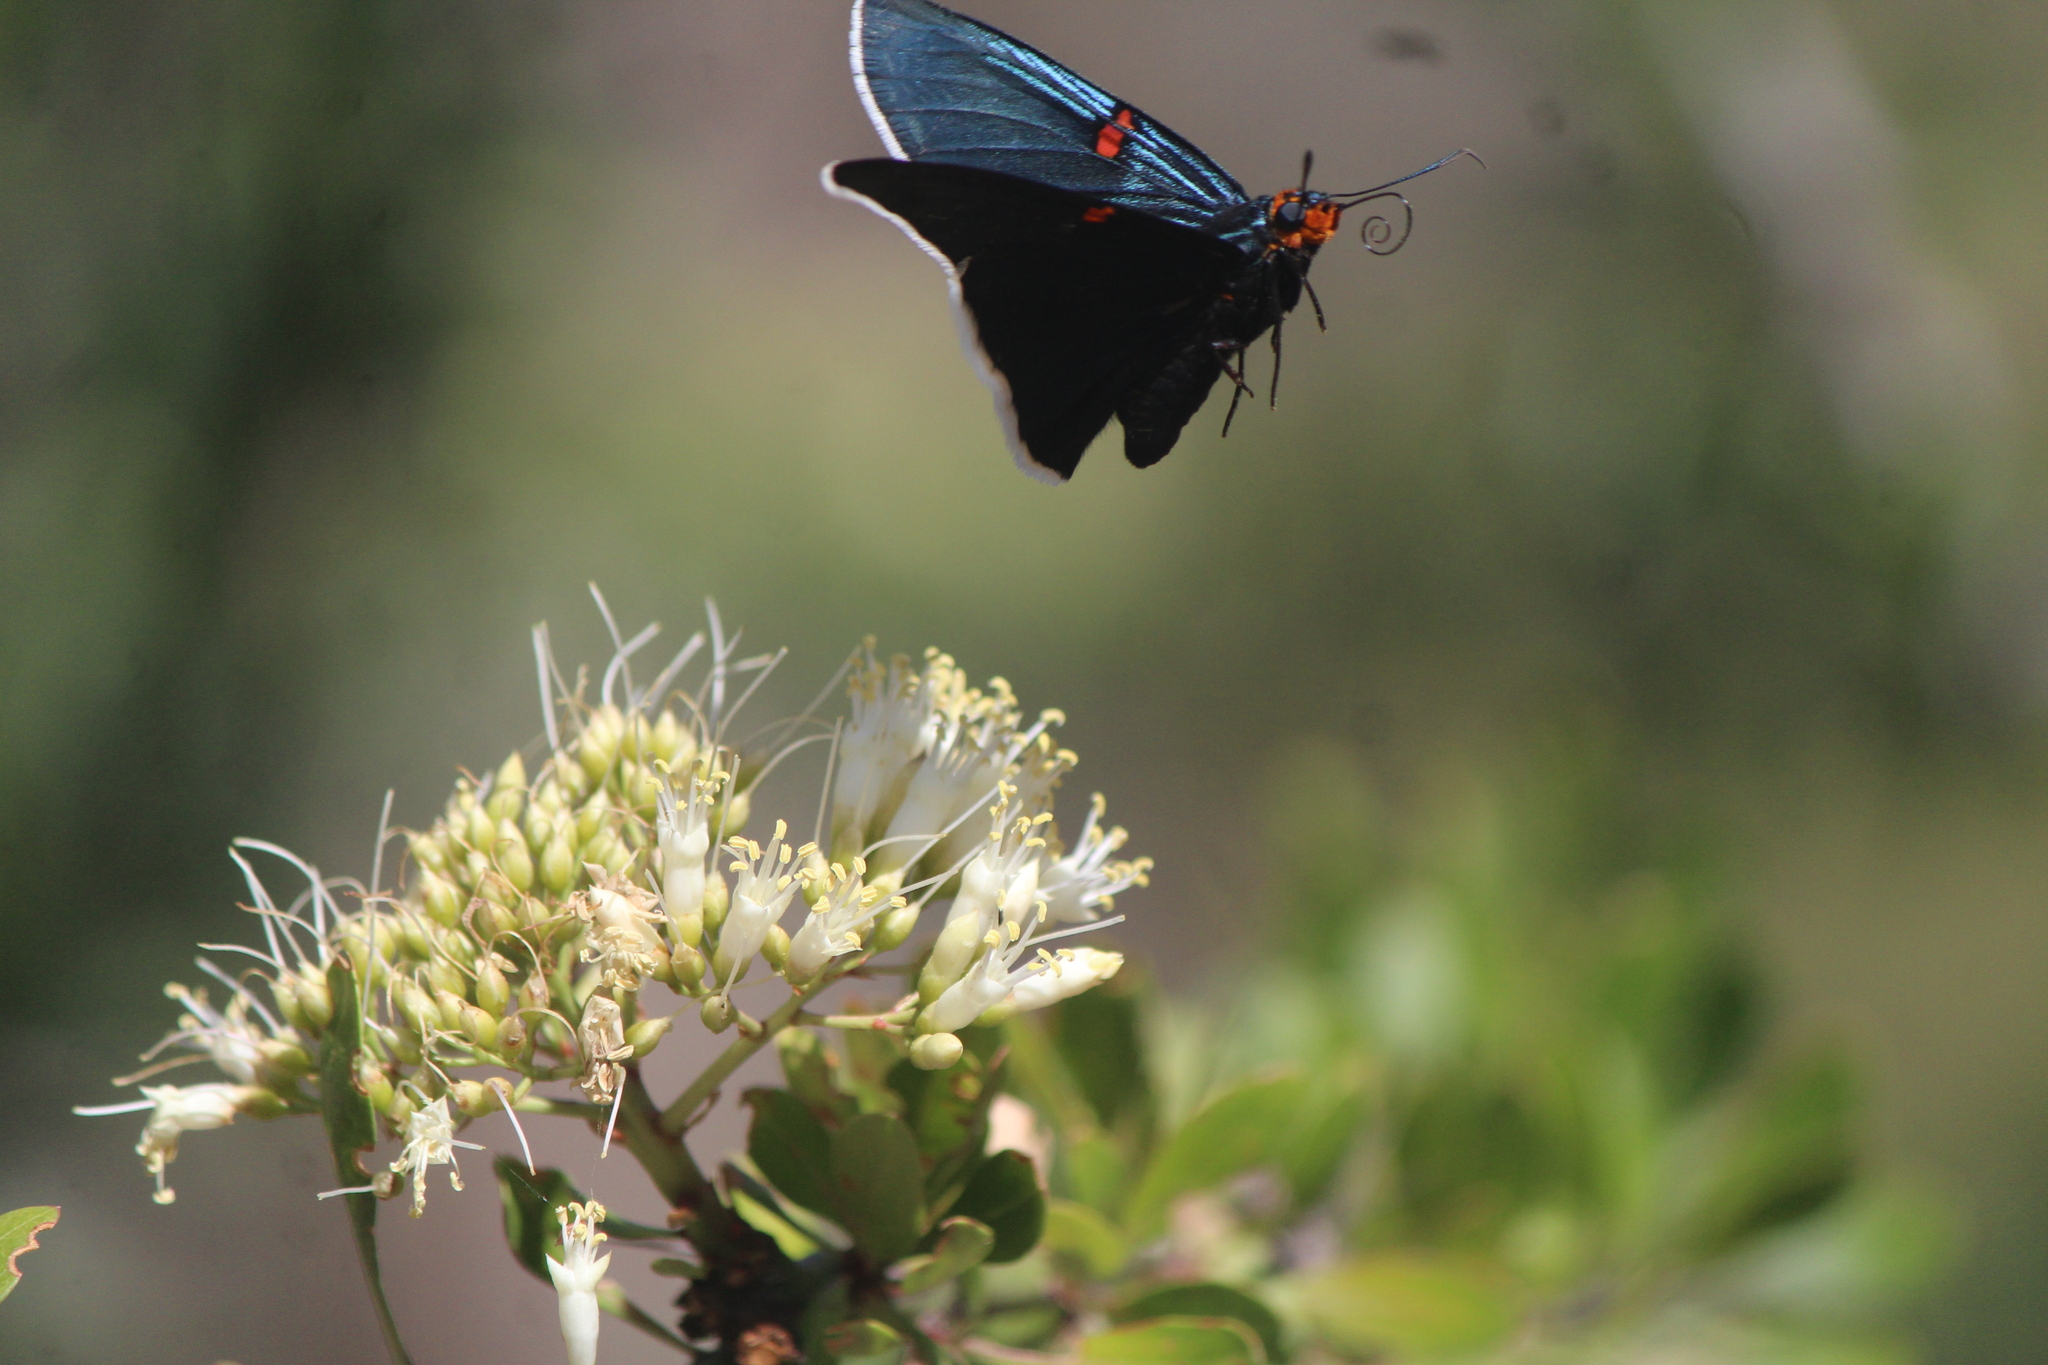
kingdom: Animalia
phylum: Arthropoda
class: Insecta
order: Lepidoptera
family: Hesperiidae
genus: Phocides
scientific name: Phocides lilea
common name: Guava skipper
